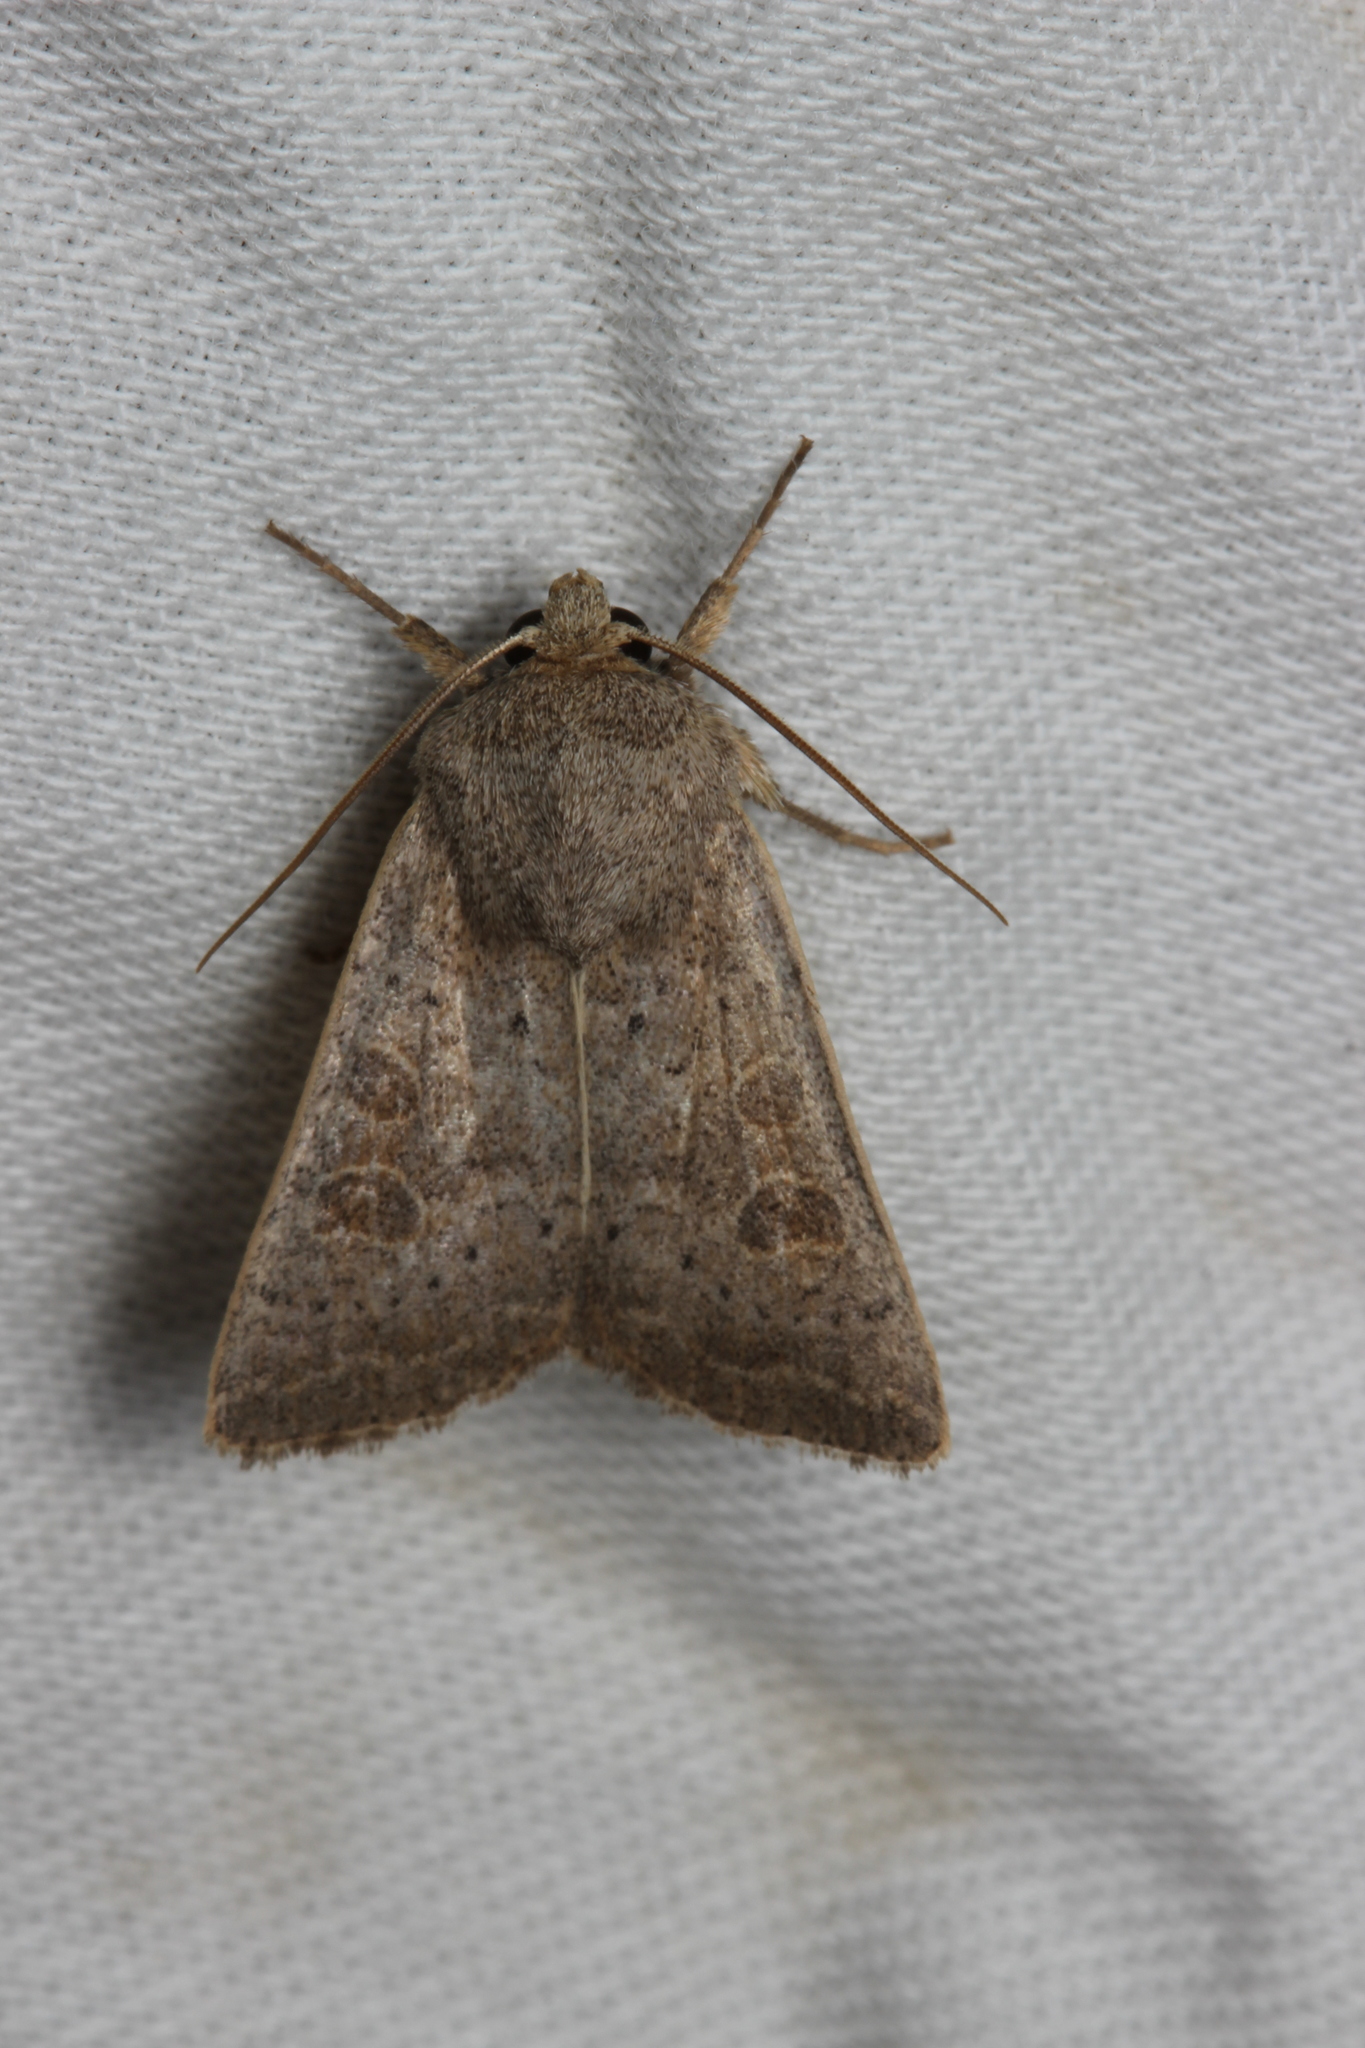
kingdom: Animalia
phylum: Arthropoda
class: Insecta
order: Lepidoptera
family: Noctuidae
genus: Hoplodrina
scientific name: Hoplodrina ambigua
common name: Vine's rustic
